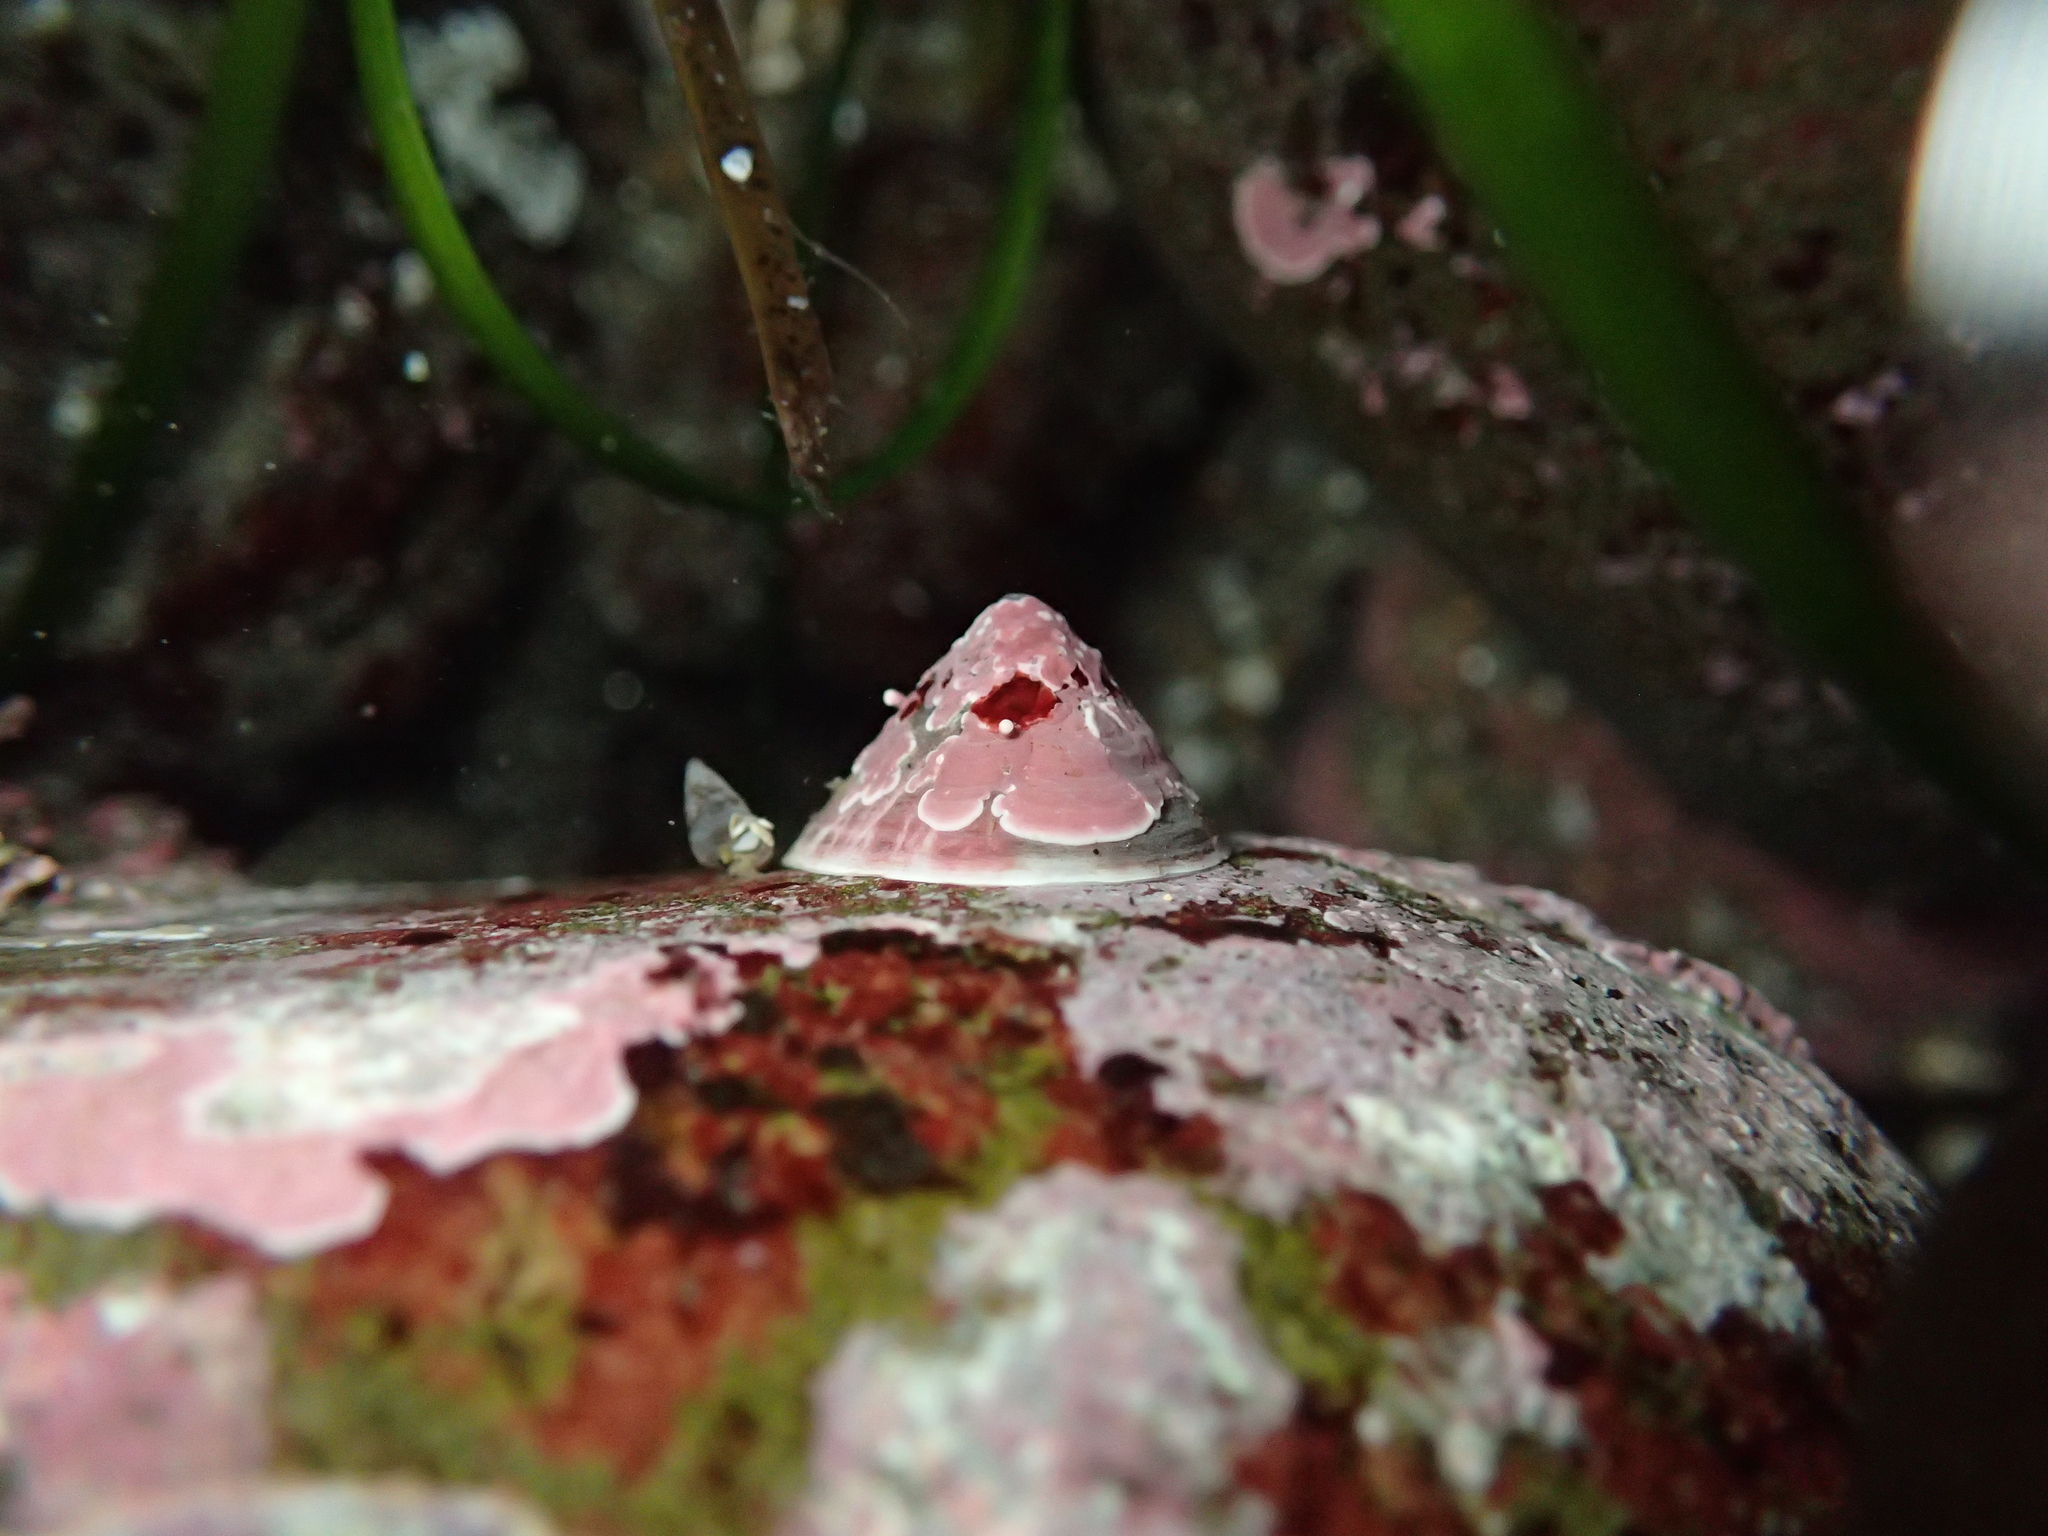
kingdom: Animalia
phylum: Mollusca
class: Gastropoda
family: Acmaeidae
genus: Acmaea
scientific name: Acmaea mitra
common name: Pacific white cap limpet
